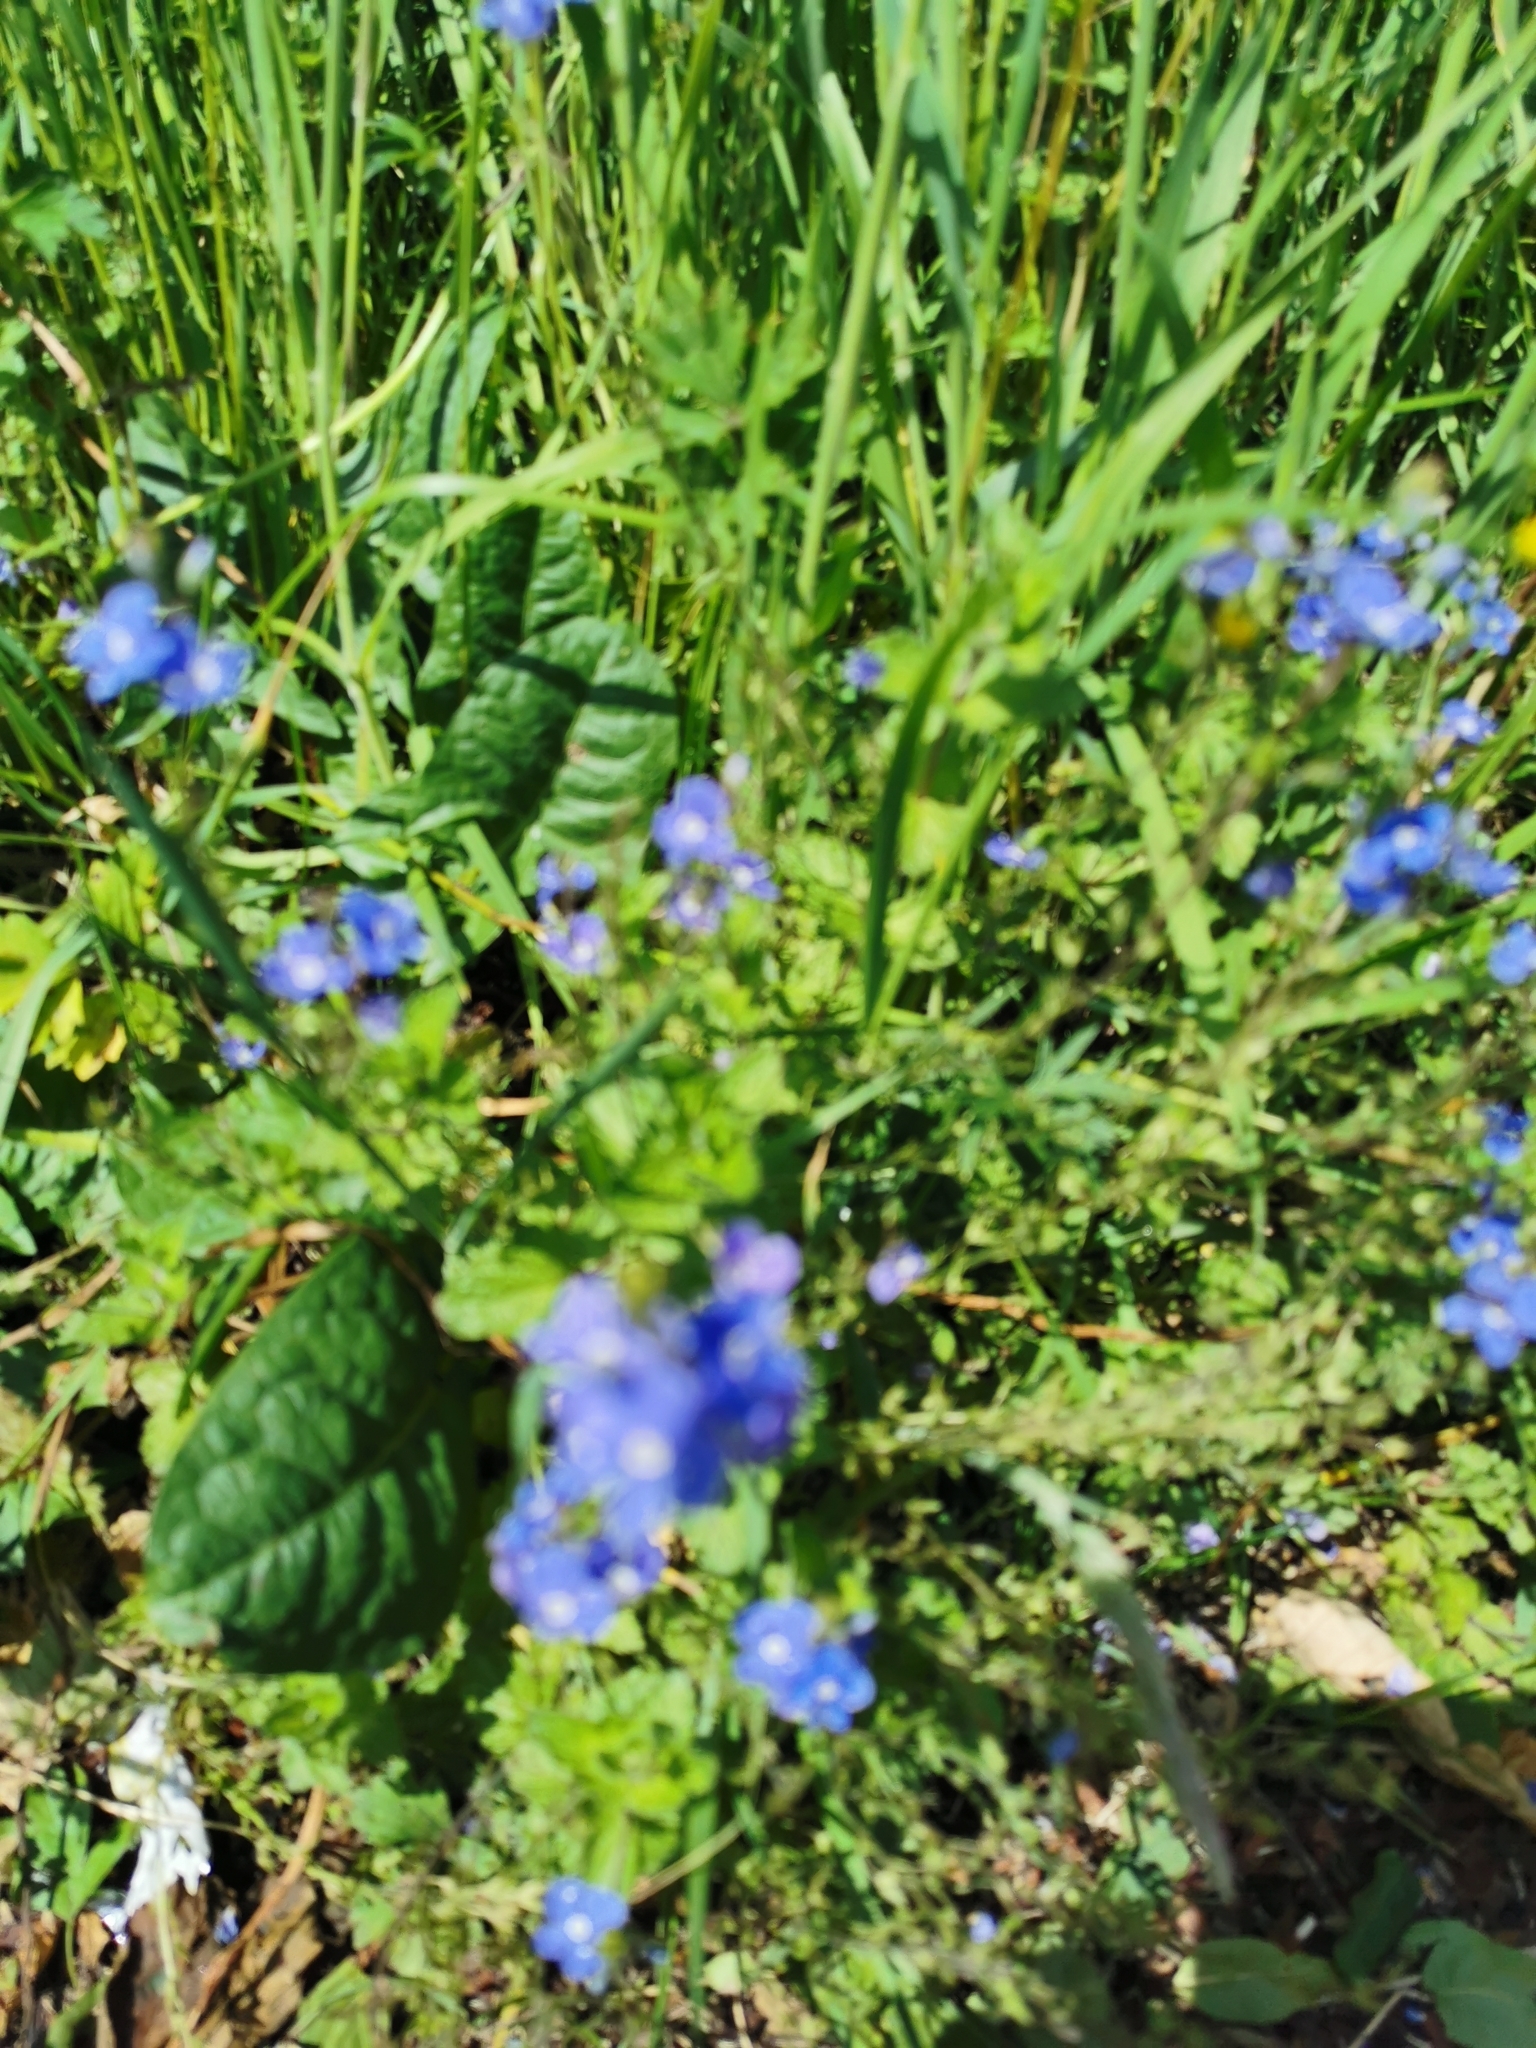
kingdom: Plantae
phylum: Tracheophyta
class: Magnoliopsida
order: Lamiales
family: Plantaginaceae
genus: Veronica
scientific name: Veronica chamaedrys
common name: Germander speedwell
